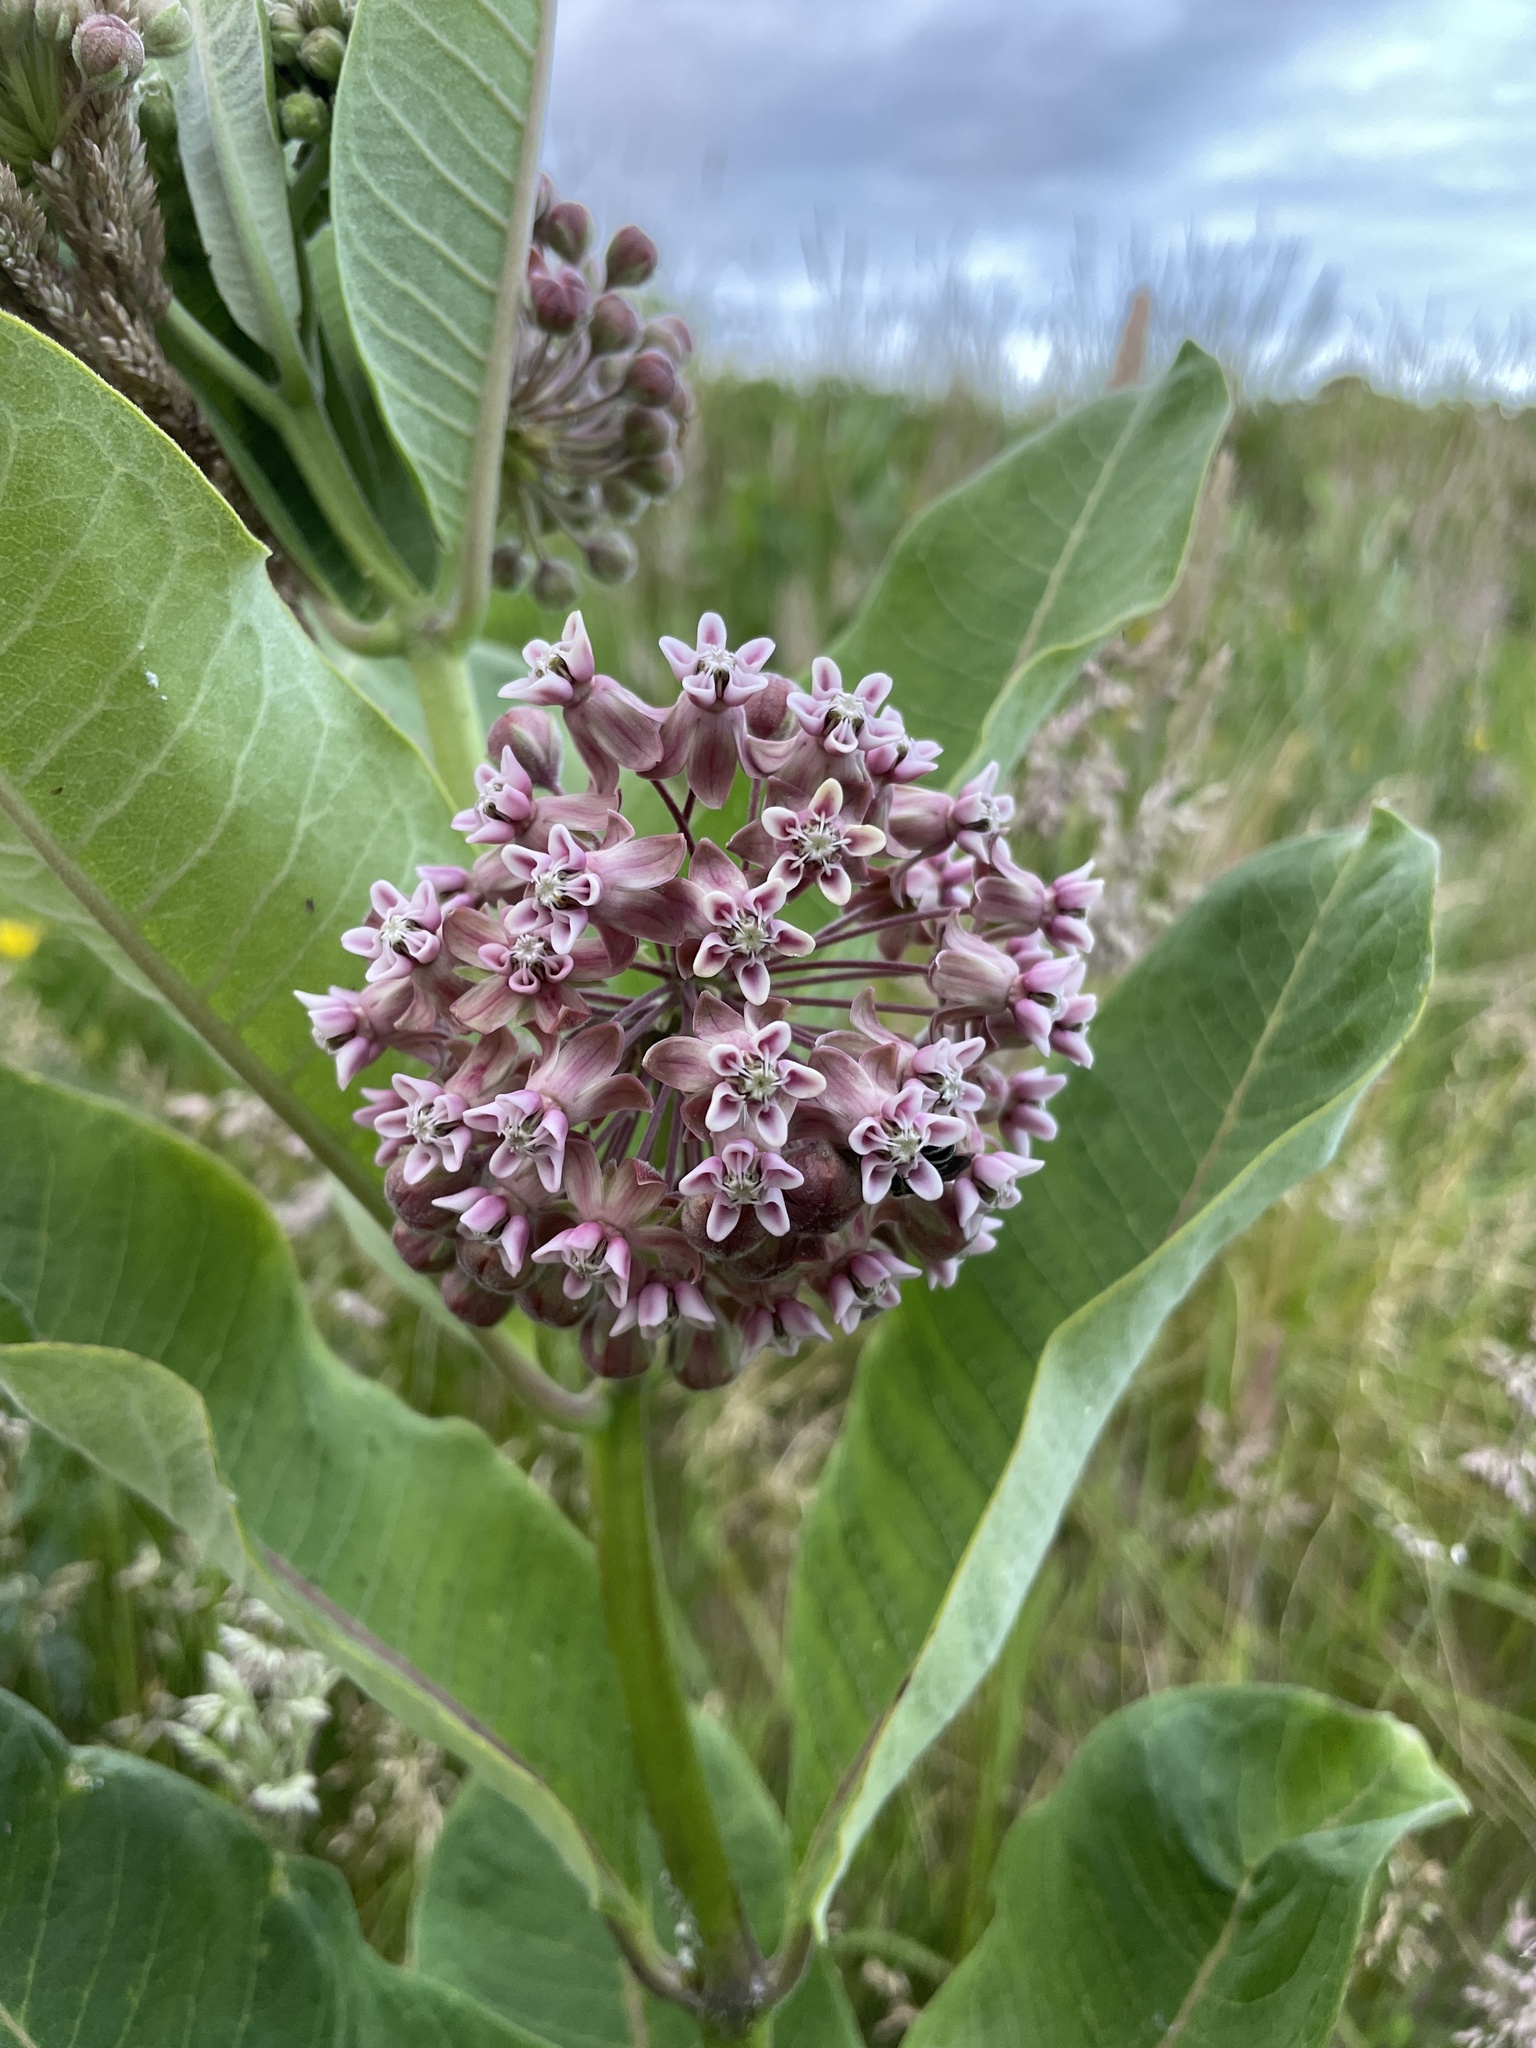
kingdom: Plantae
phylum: Tracheophyta
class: Magnoliopsida
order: Gentianales
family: Apocynaceae
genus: Asclepias
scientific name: Asclepias syriaca
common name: Common milkweed
